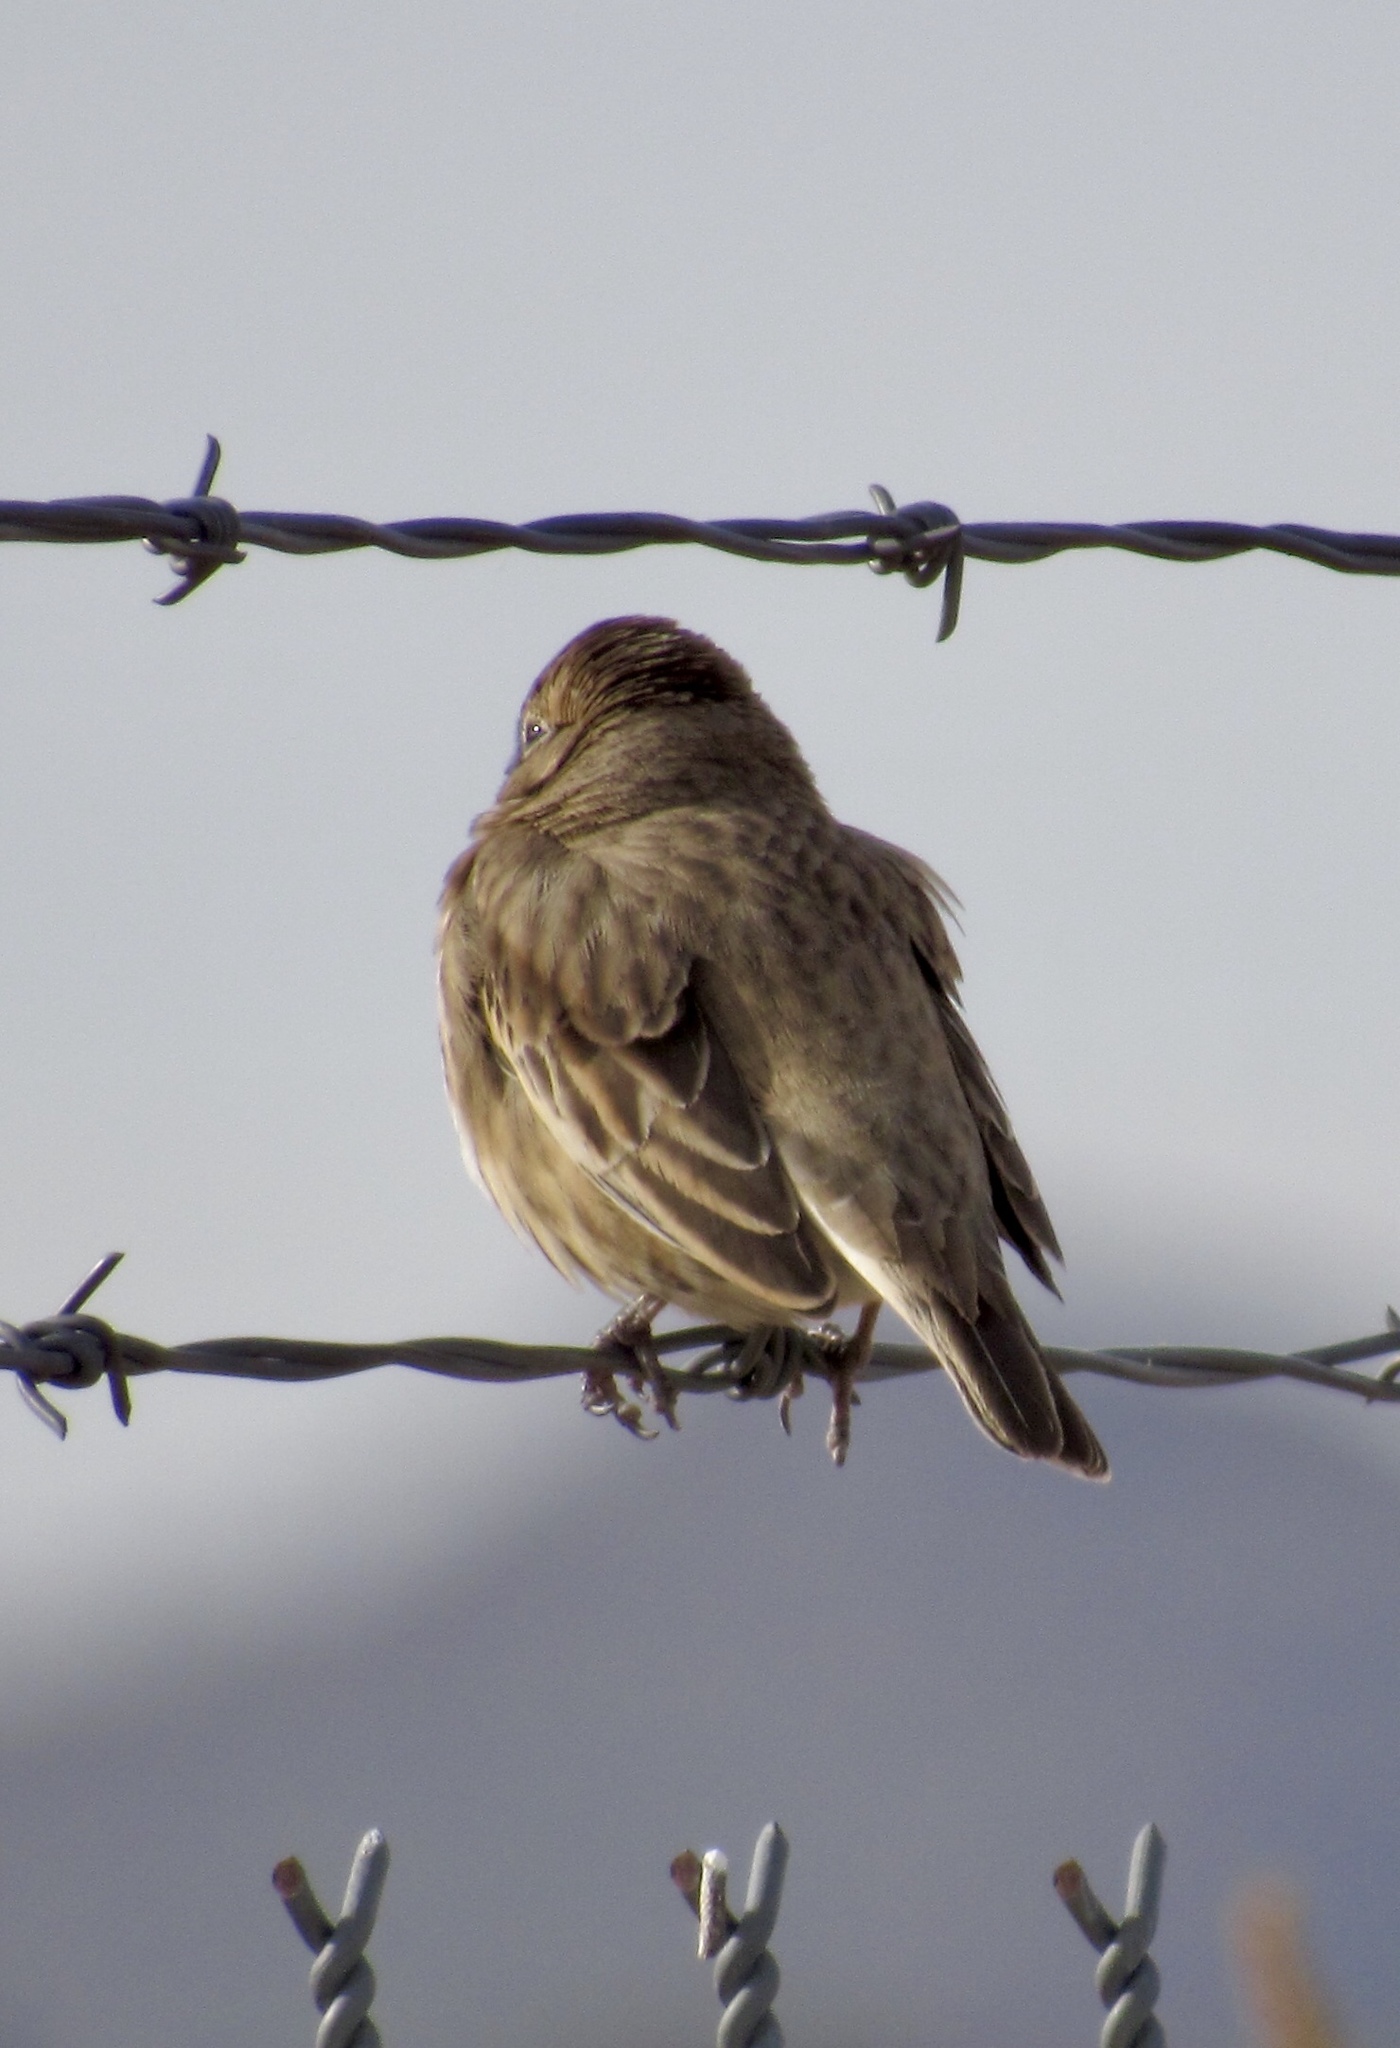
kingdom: Animalia
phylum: Chordata
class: Aves
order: Passeriformes
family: Passerellidae
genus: Calamospiza
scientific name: Calamospiza melanocorys
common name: Lark bunting
